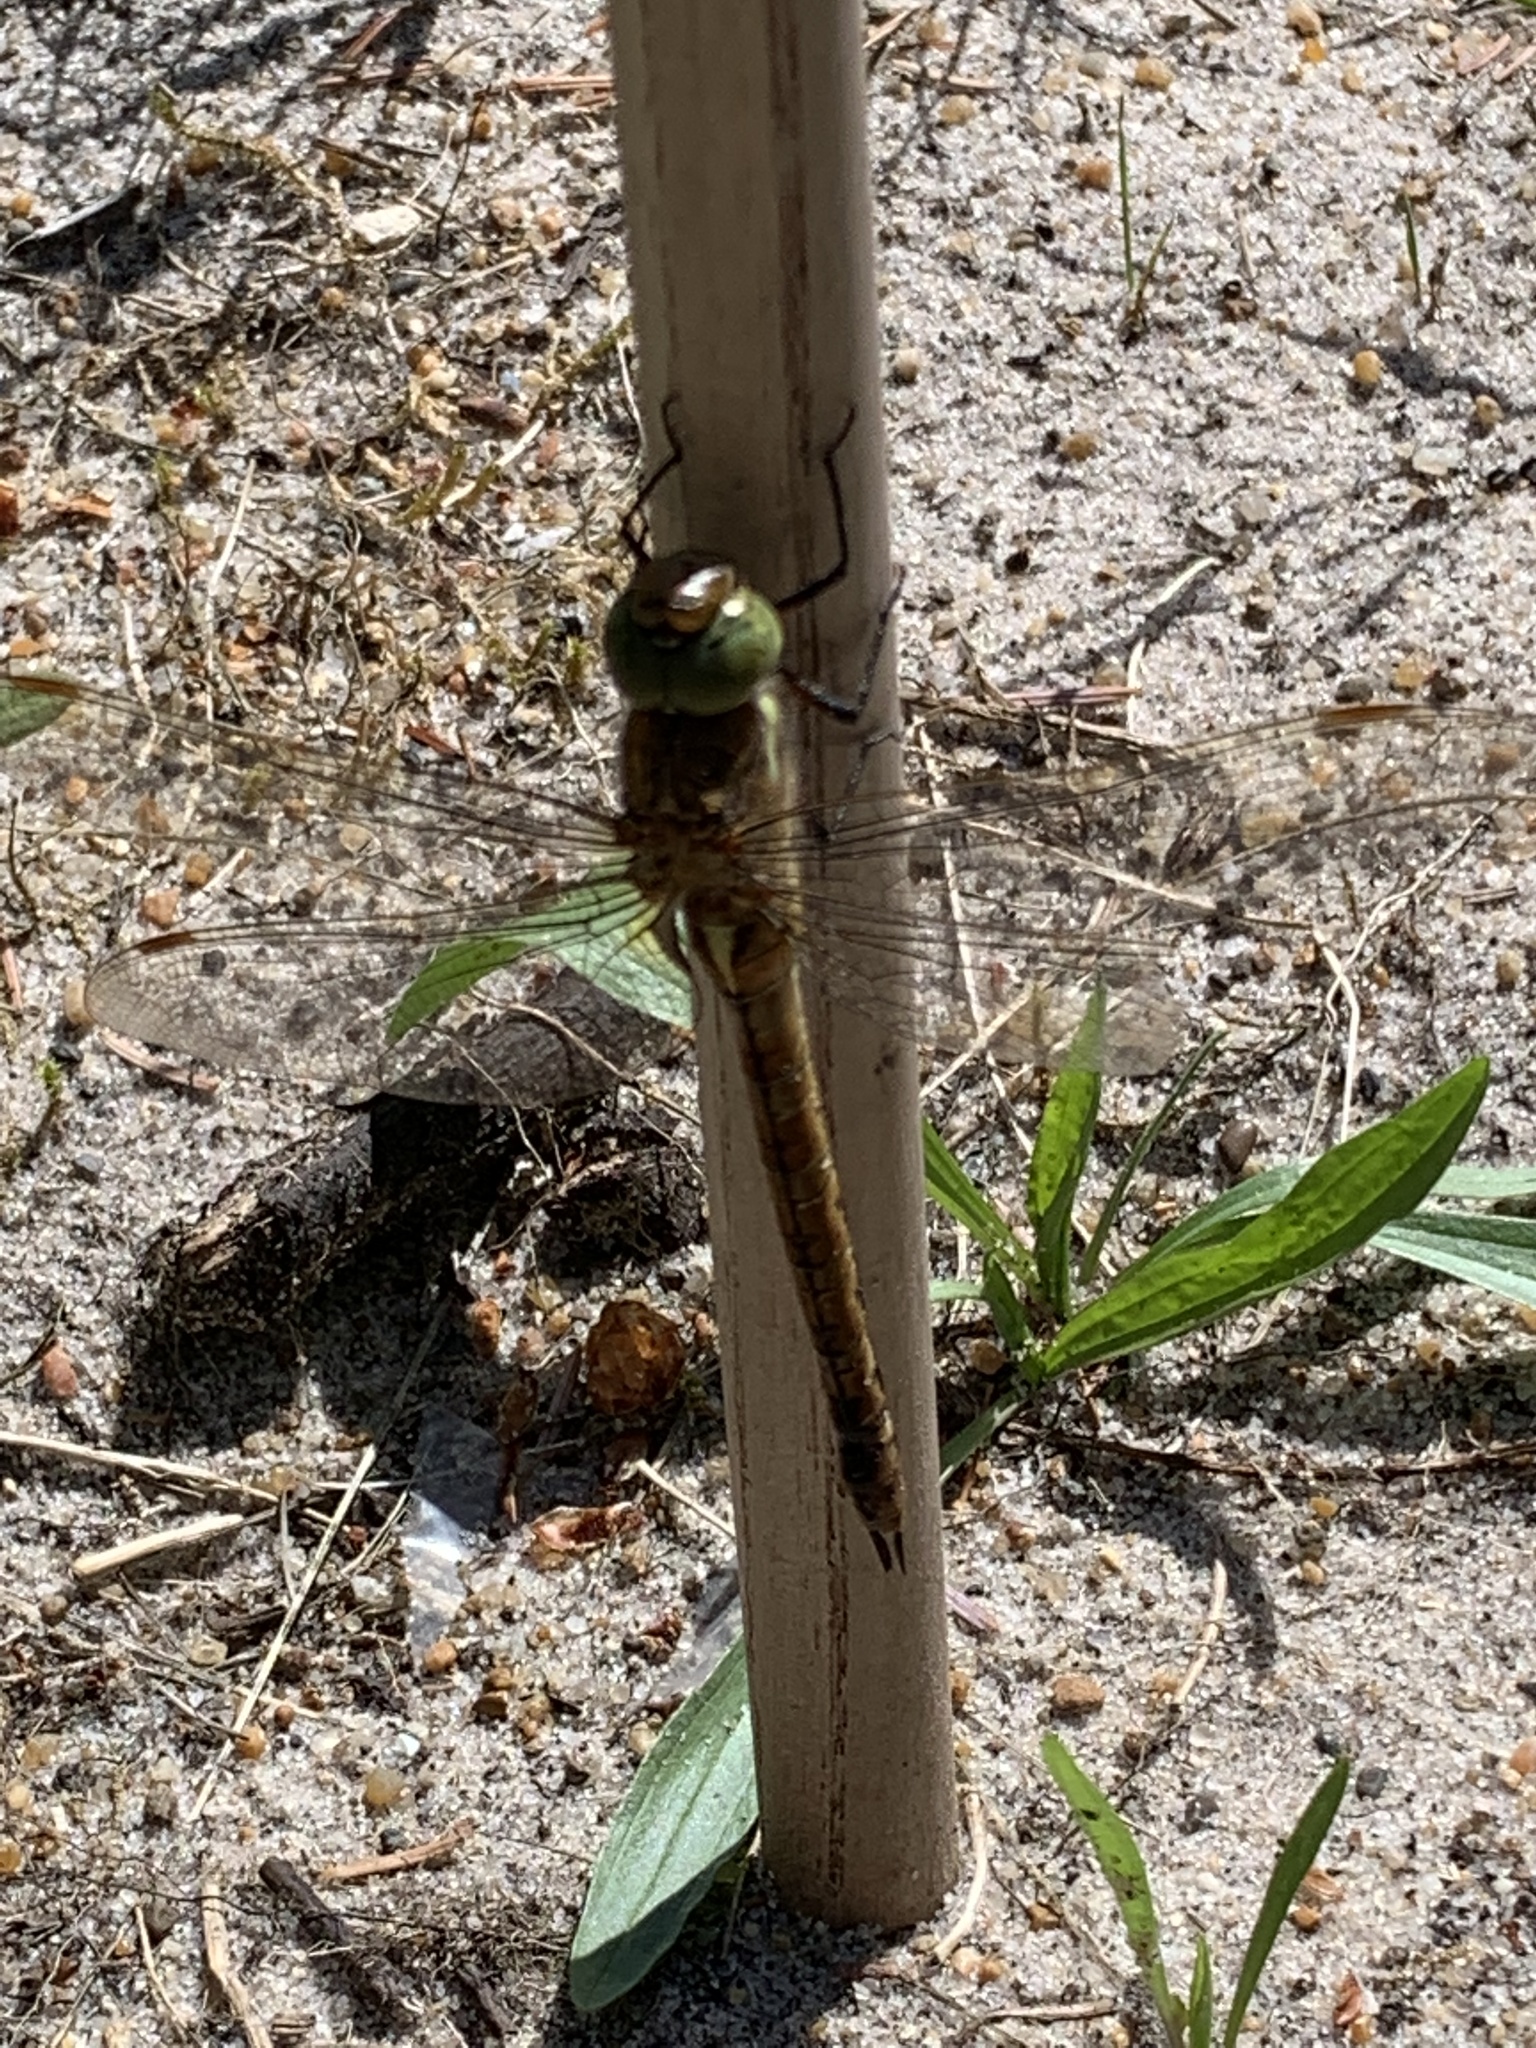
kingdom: Animalia
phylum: Arthropoda
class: Insecta
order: Odonata
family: Aeshnidae
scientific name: Aeshnidae
